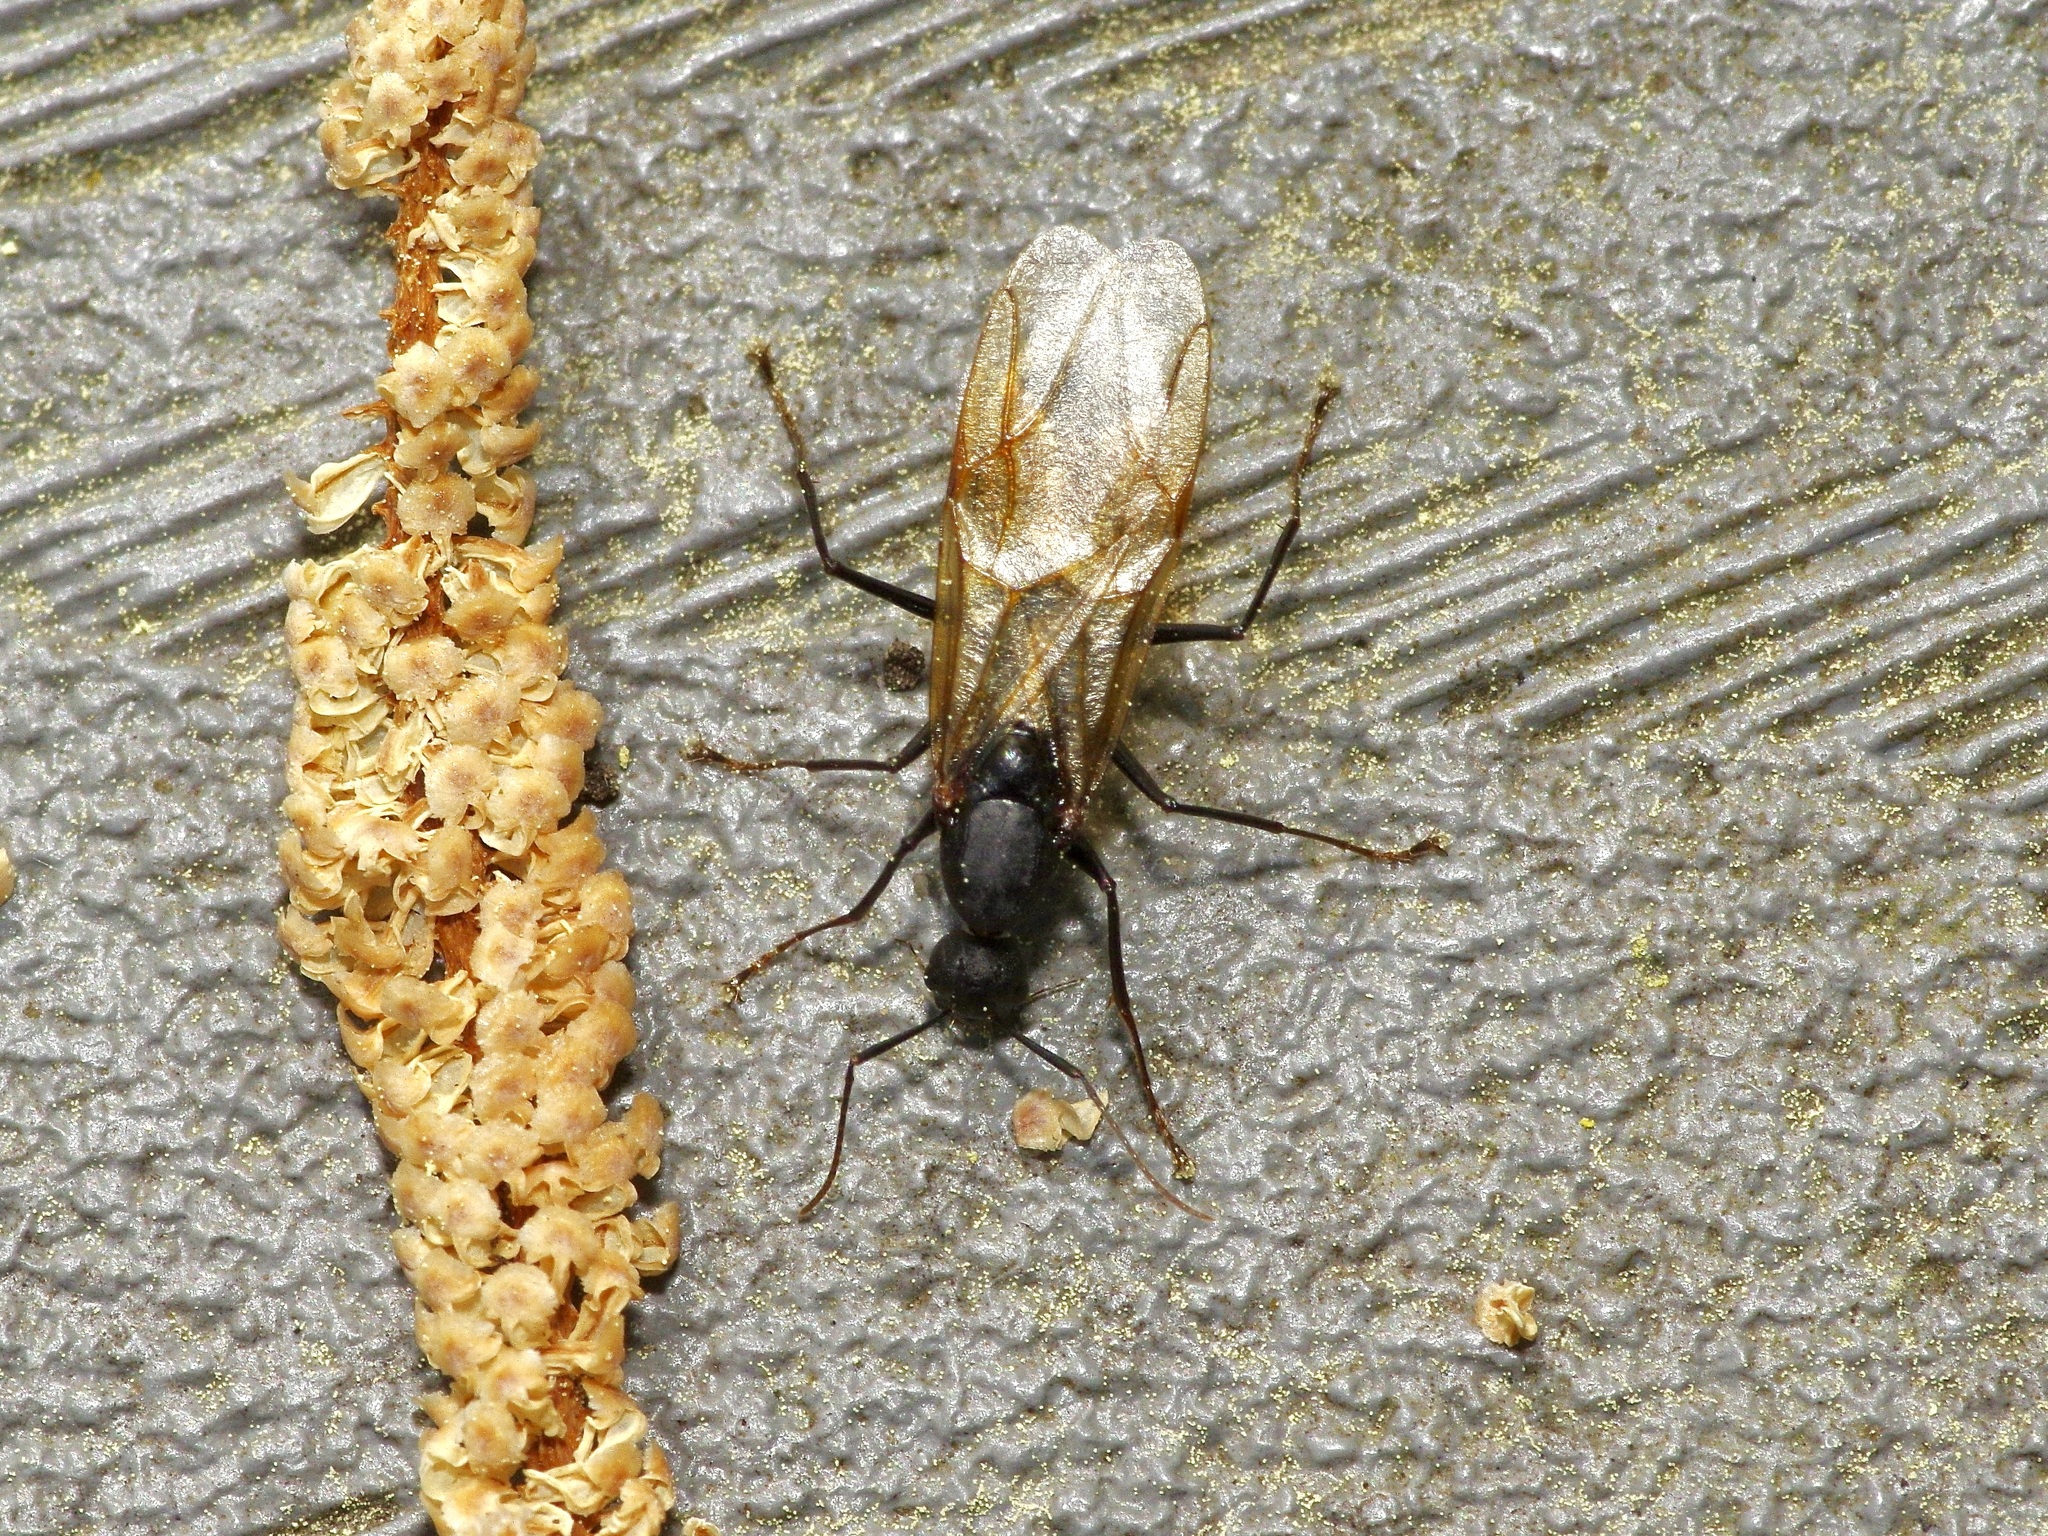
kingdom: Animalia
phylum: Arthropoda
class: Insecta
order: Hymenoptera
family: Formicidae
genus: Camponotus
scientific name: Camponotus pennsylvanicus
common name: Black carpenter ant
